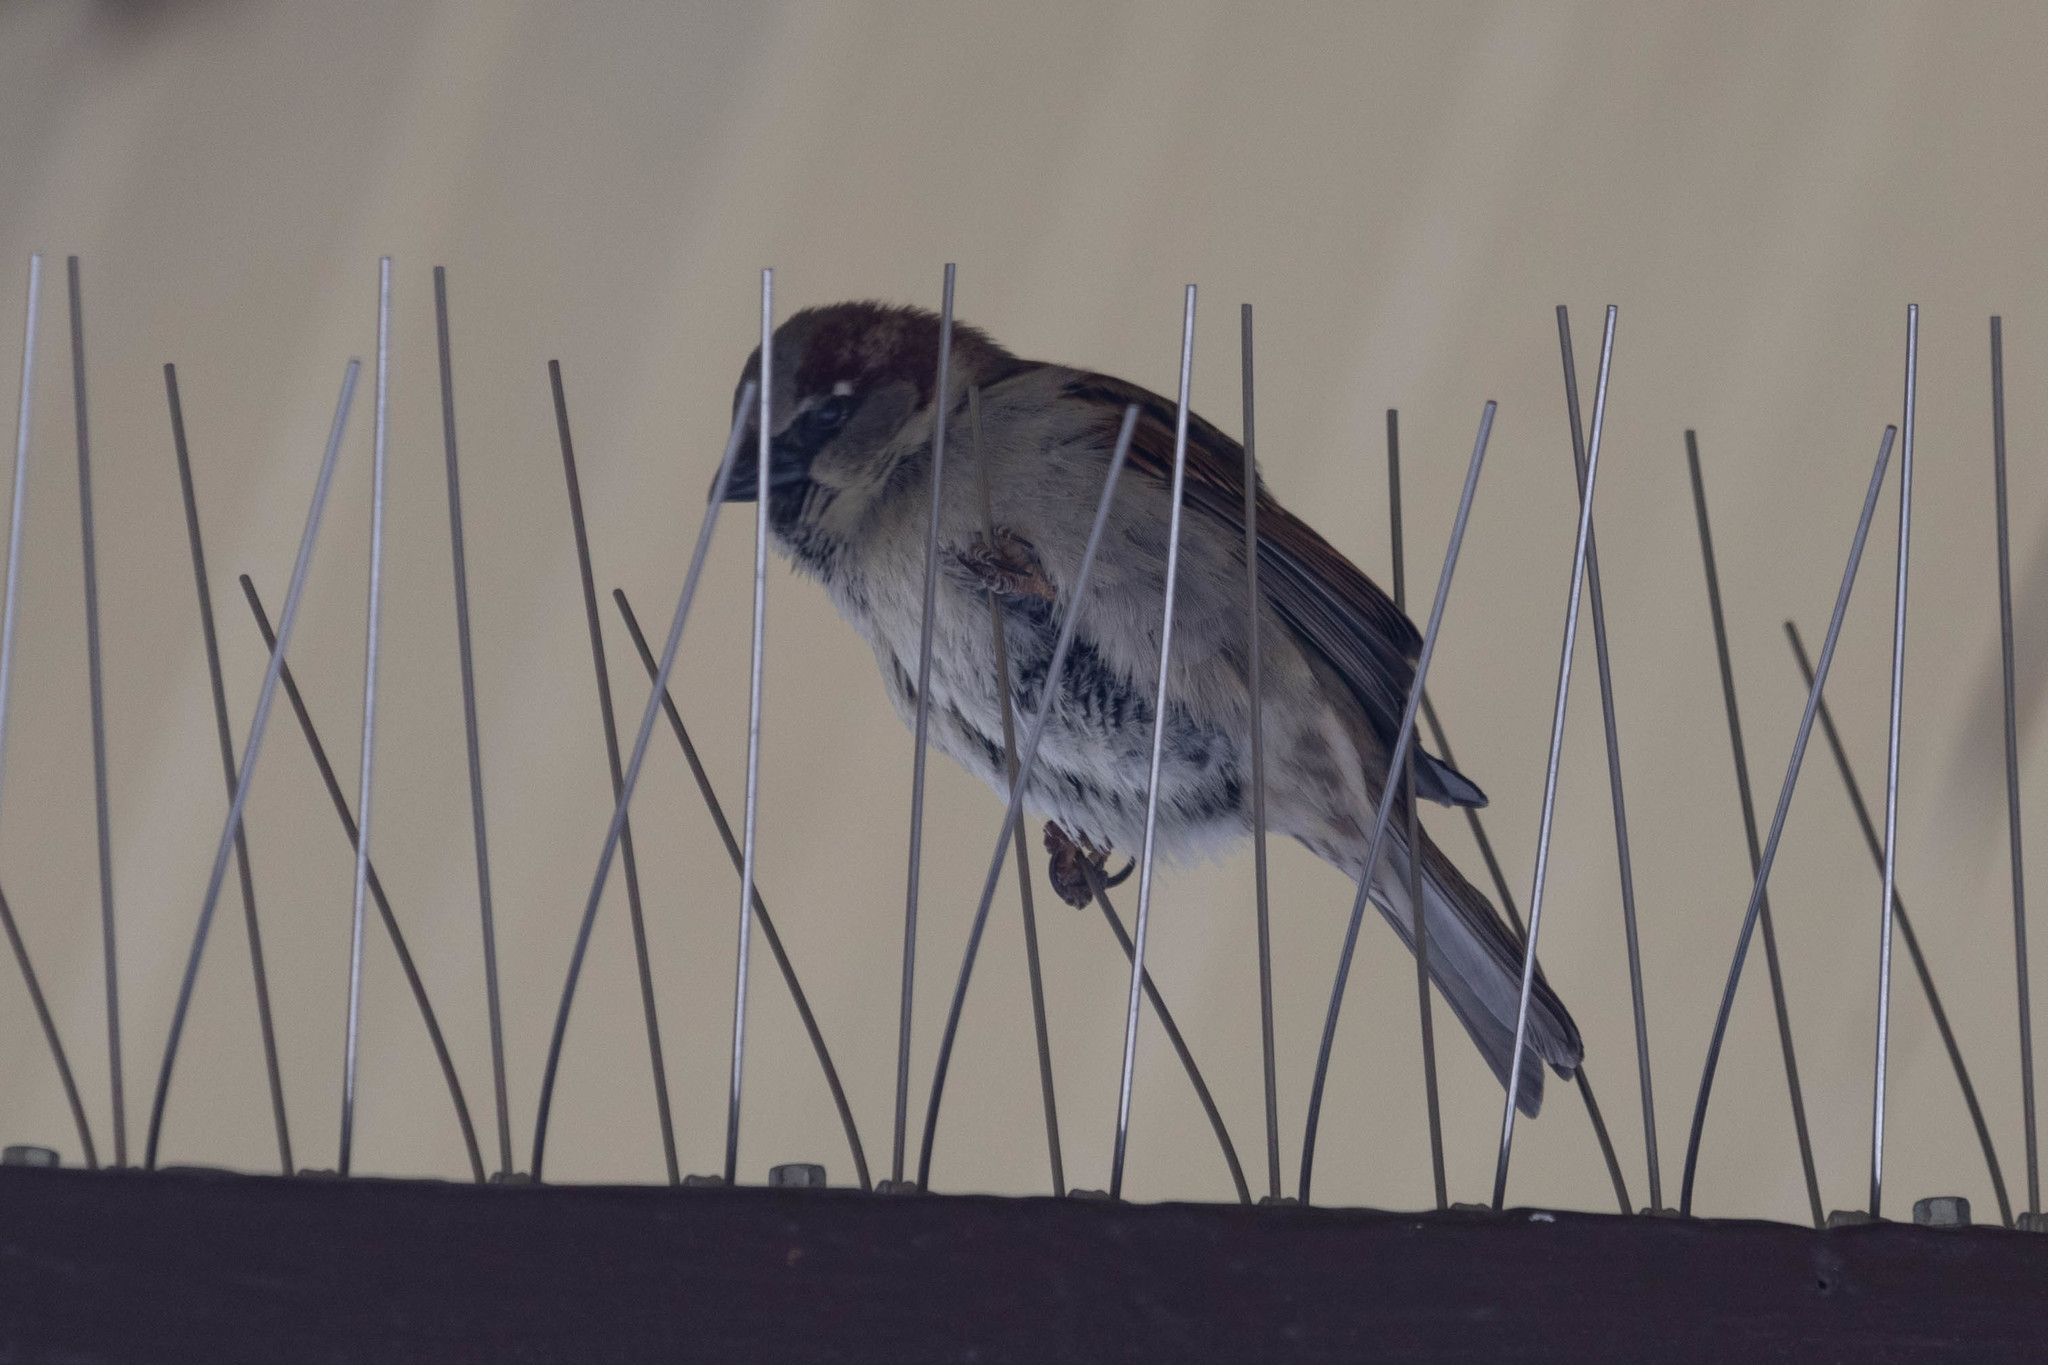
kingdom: Animalia
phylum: Chordata
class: Aves
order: Passeriformes
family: Passeridae
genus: Passer
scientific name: Passer domesticus
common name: House sparrow
